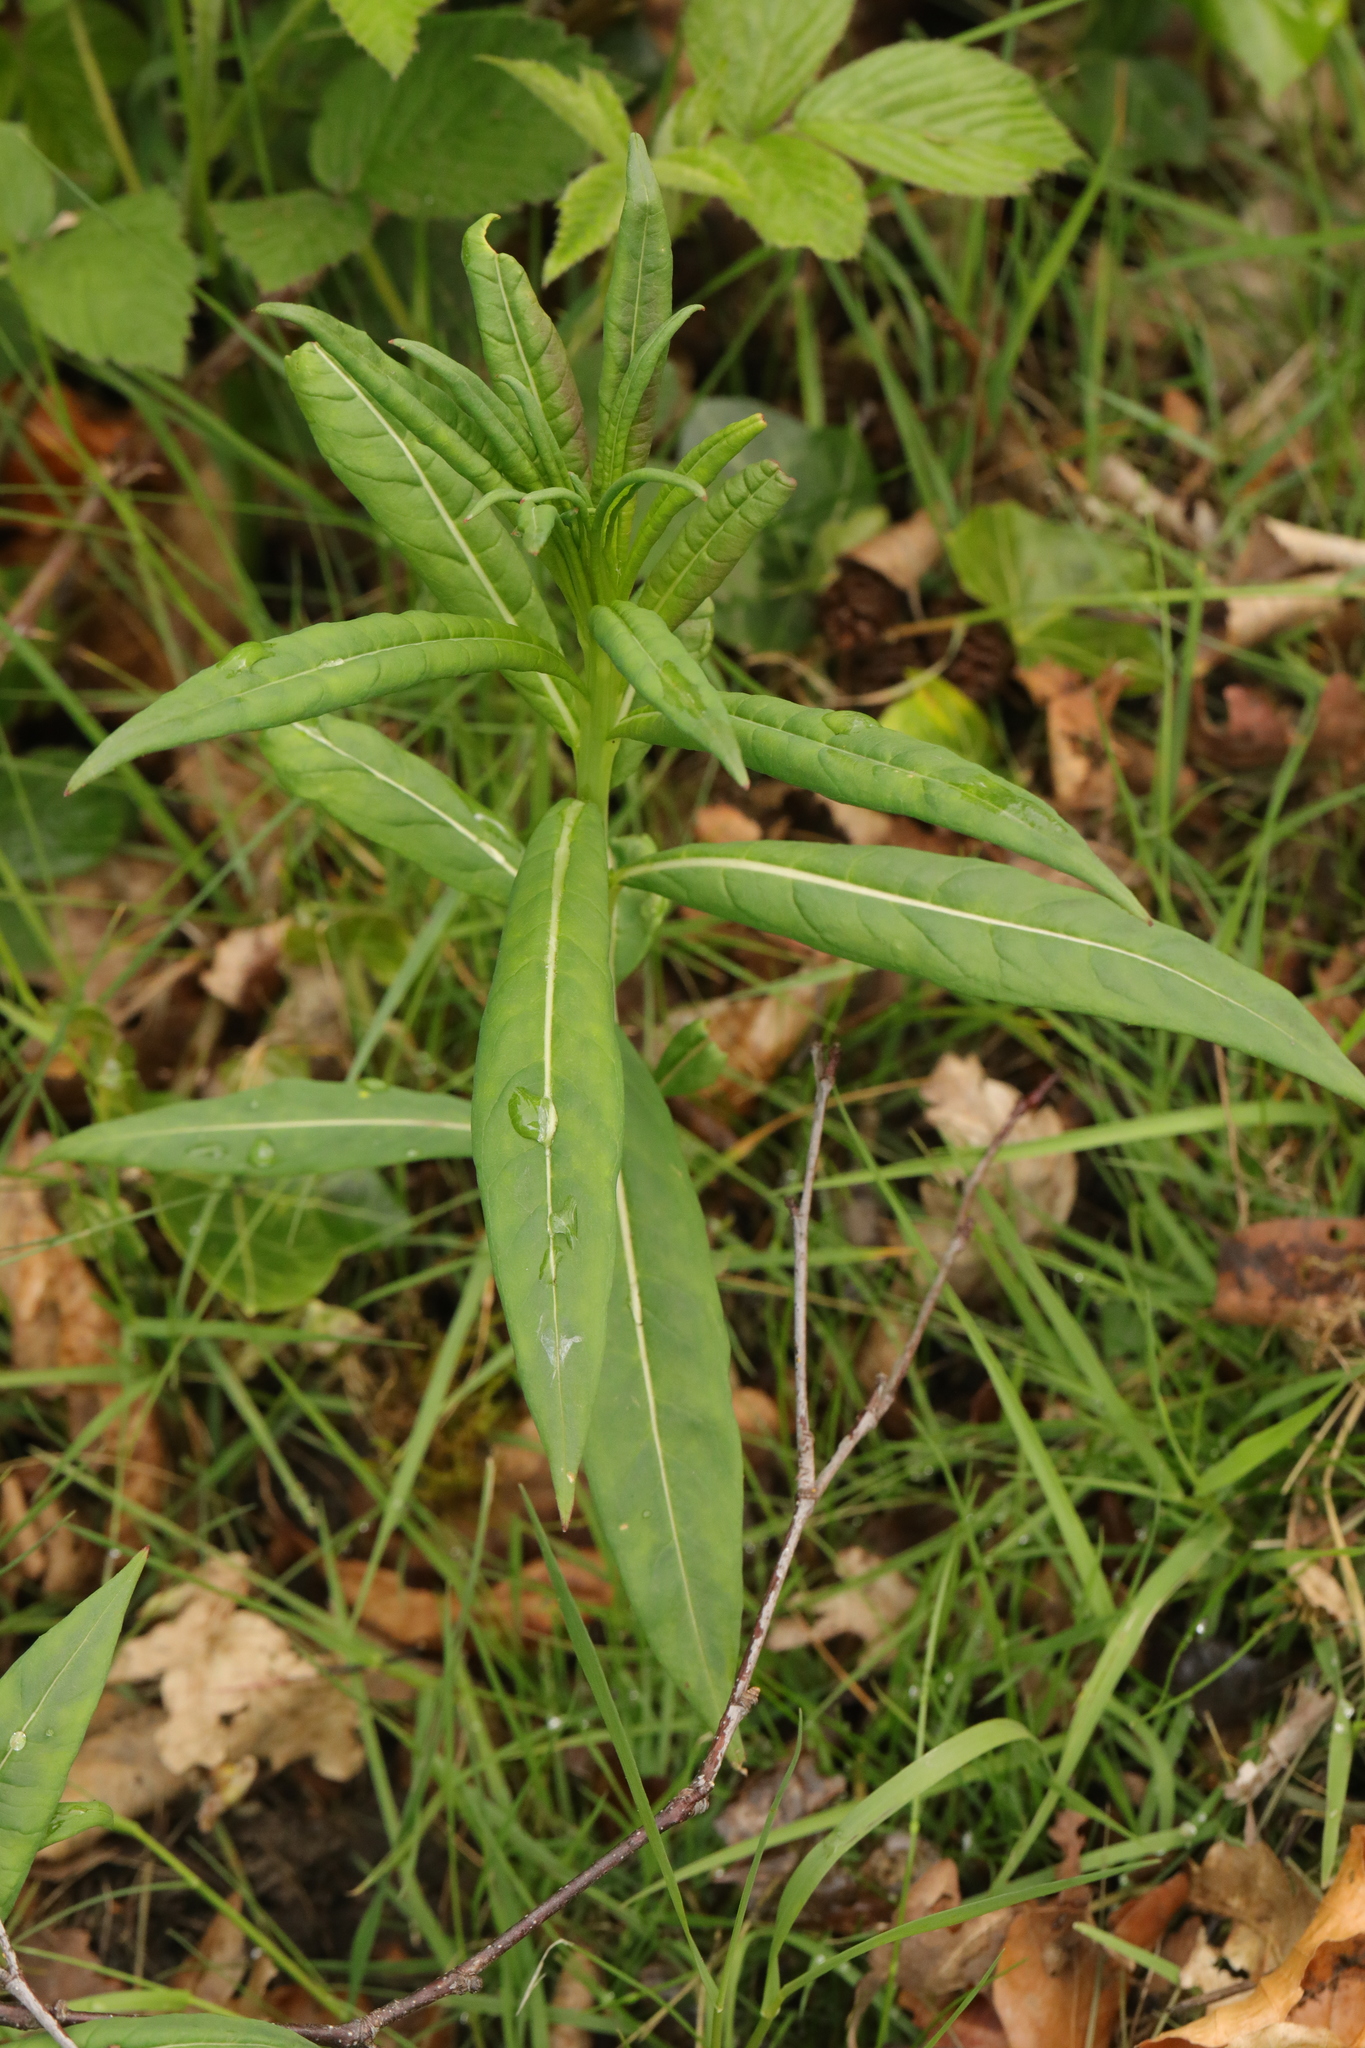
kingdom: Plantae
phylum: Tracheophyta
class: Magnoliopsida
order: Myrtales
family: Onagraceae
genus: Chamaenerion
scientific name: Chamaenerion angustifolium
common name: Fireweed
